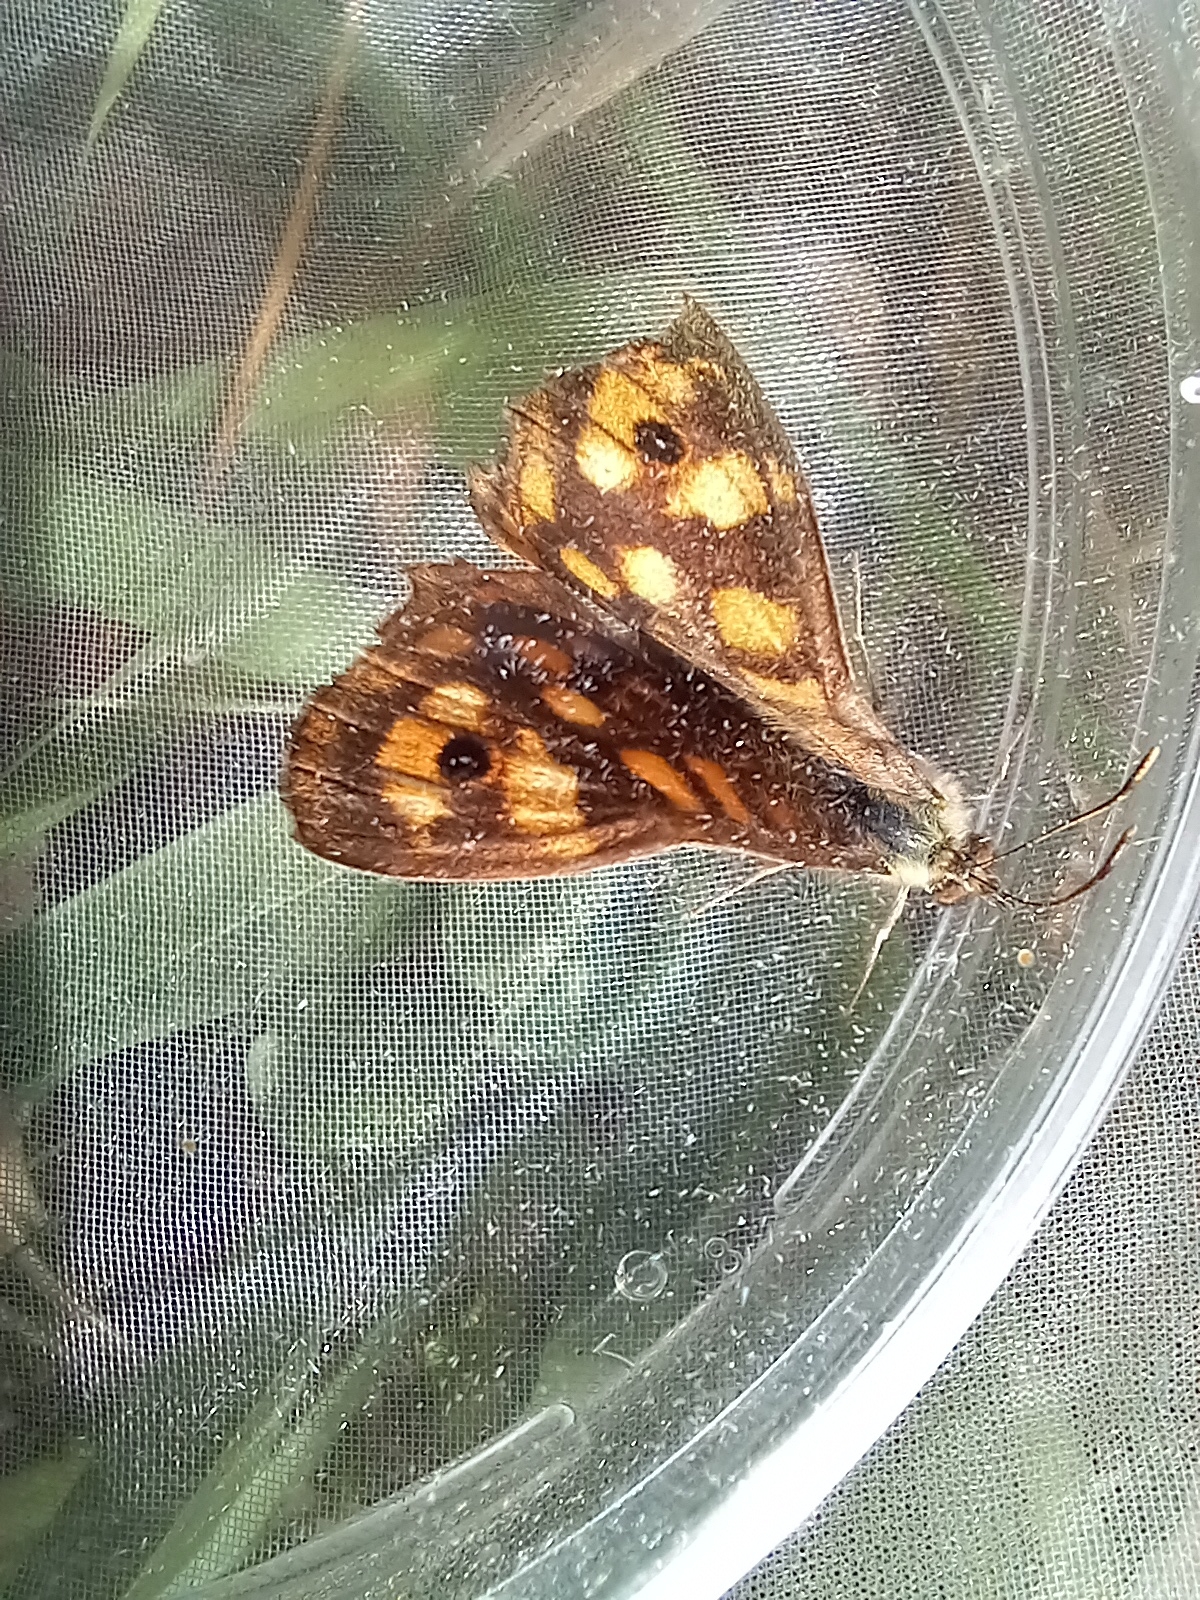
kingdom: Animalia
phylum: Arthropoda
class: Insecta
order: Lepidoptera
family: Nymphalidae
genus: Pararge
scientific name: Pararge aegeria
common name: Speckled wood
